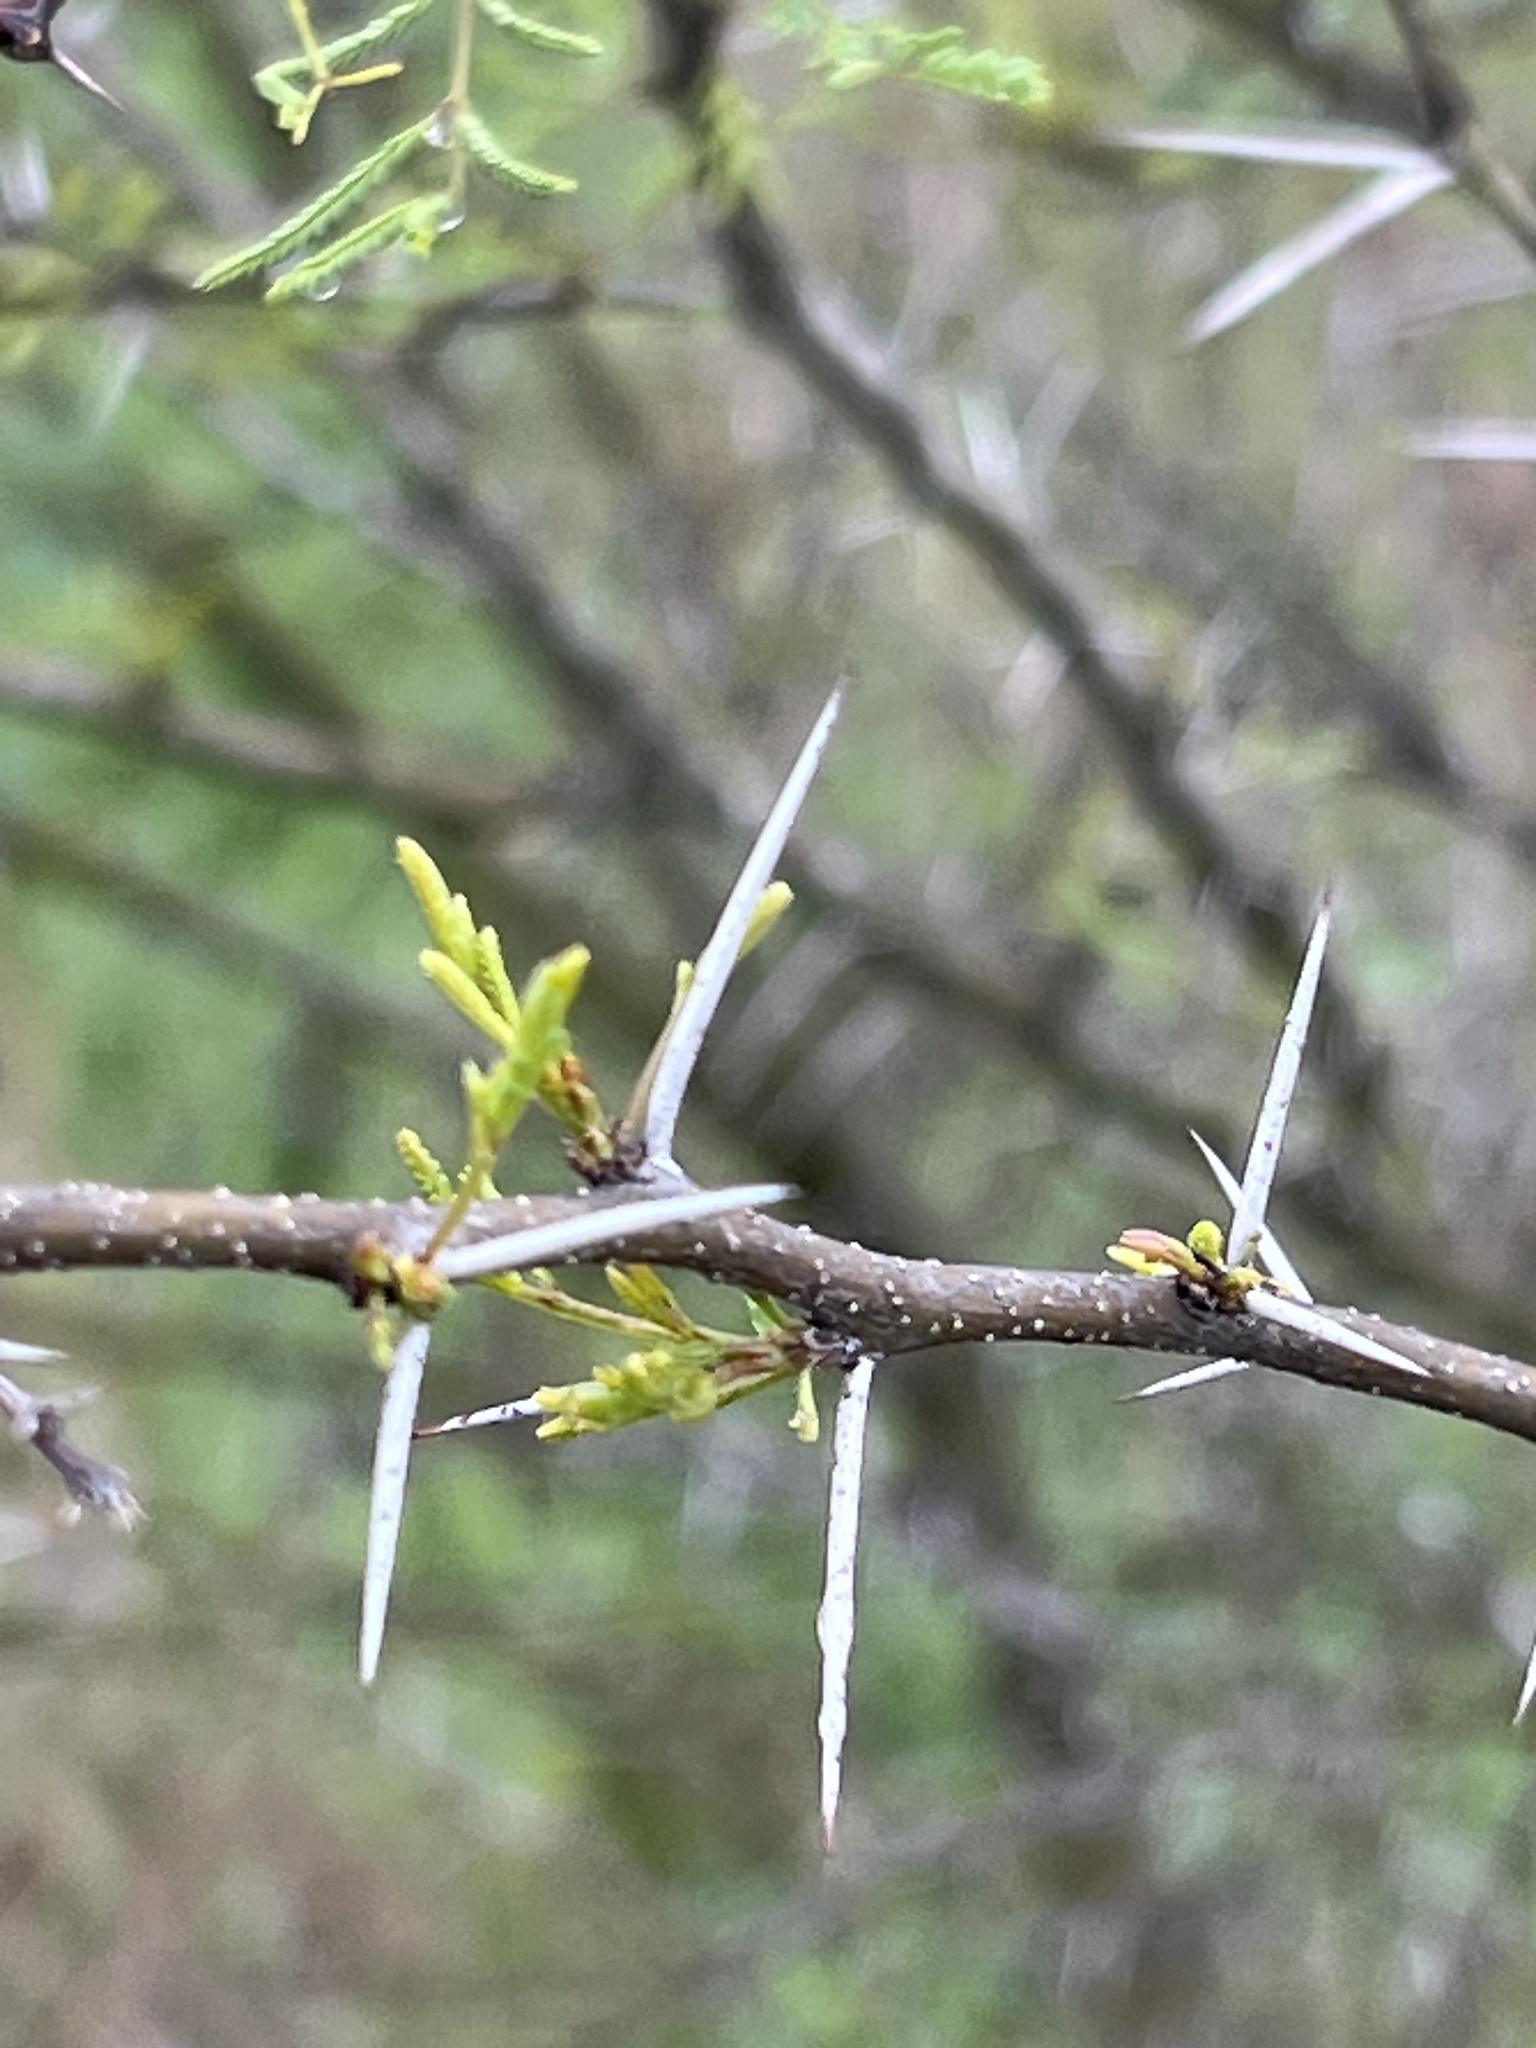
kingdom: Plantae
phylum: Tracheophyta
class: Magnoliopsida
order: Fabales
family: Fabaceae
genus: Vachellia
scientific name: Vachellia farnesiana
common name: Sweet acacia
